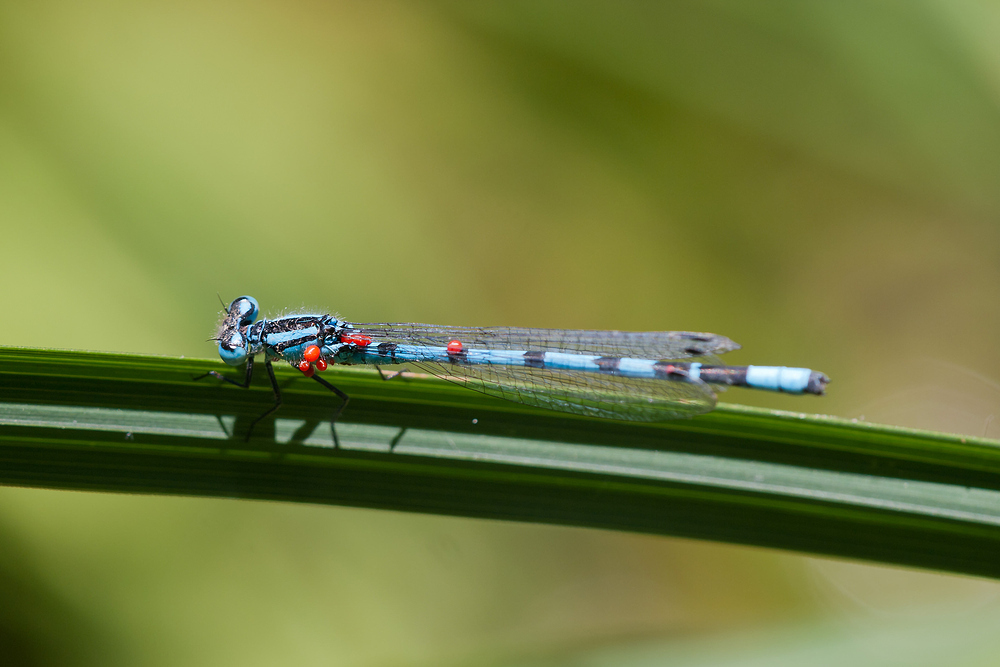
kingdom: Animalia
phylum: Arthropoda
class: Insecta
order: Odonata
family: Coenagrionidae
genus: Enallagma
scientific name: Enallagma cyathigerum
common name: Common blue damselfly
